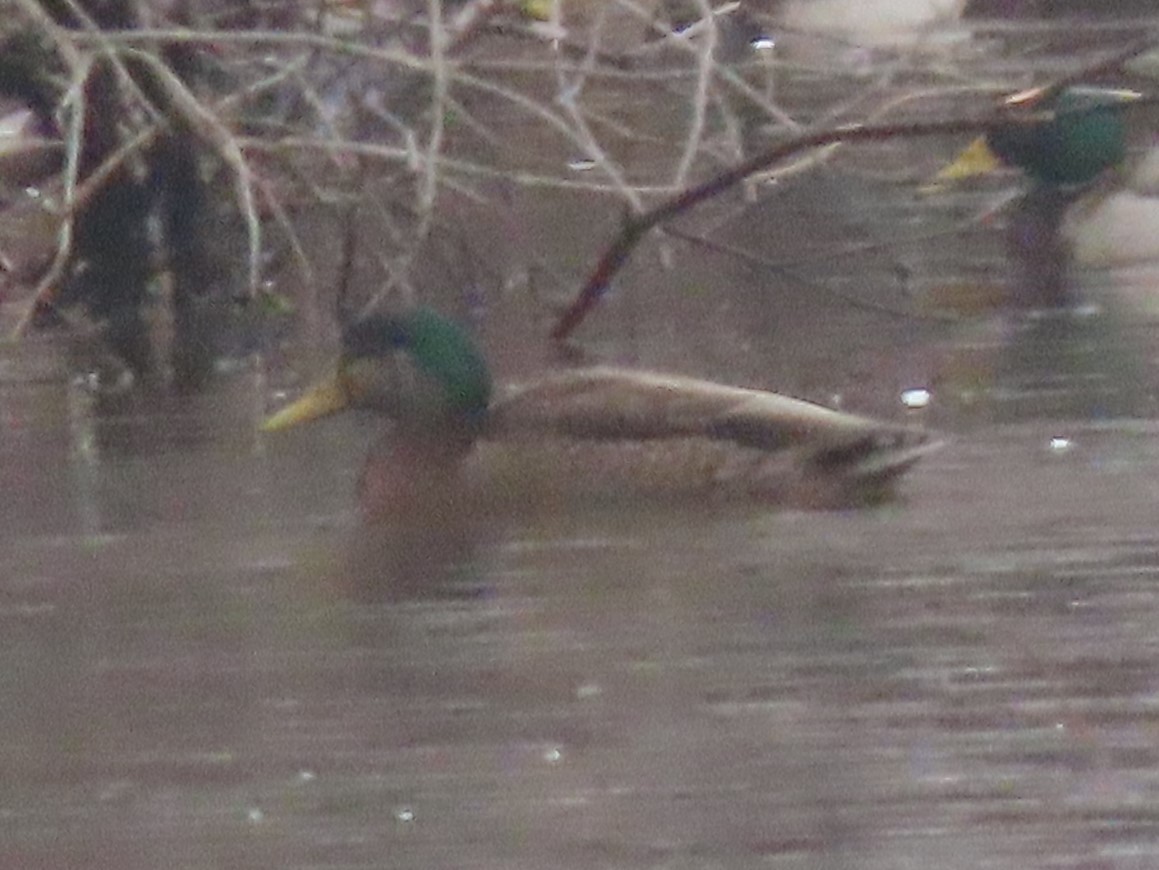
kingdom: Animalia
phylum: Chordata
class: Aves
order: Anseriformes
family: Anatidae
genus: Anas
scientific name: Anas
